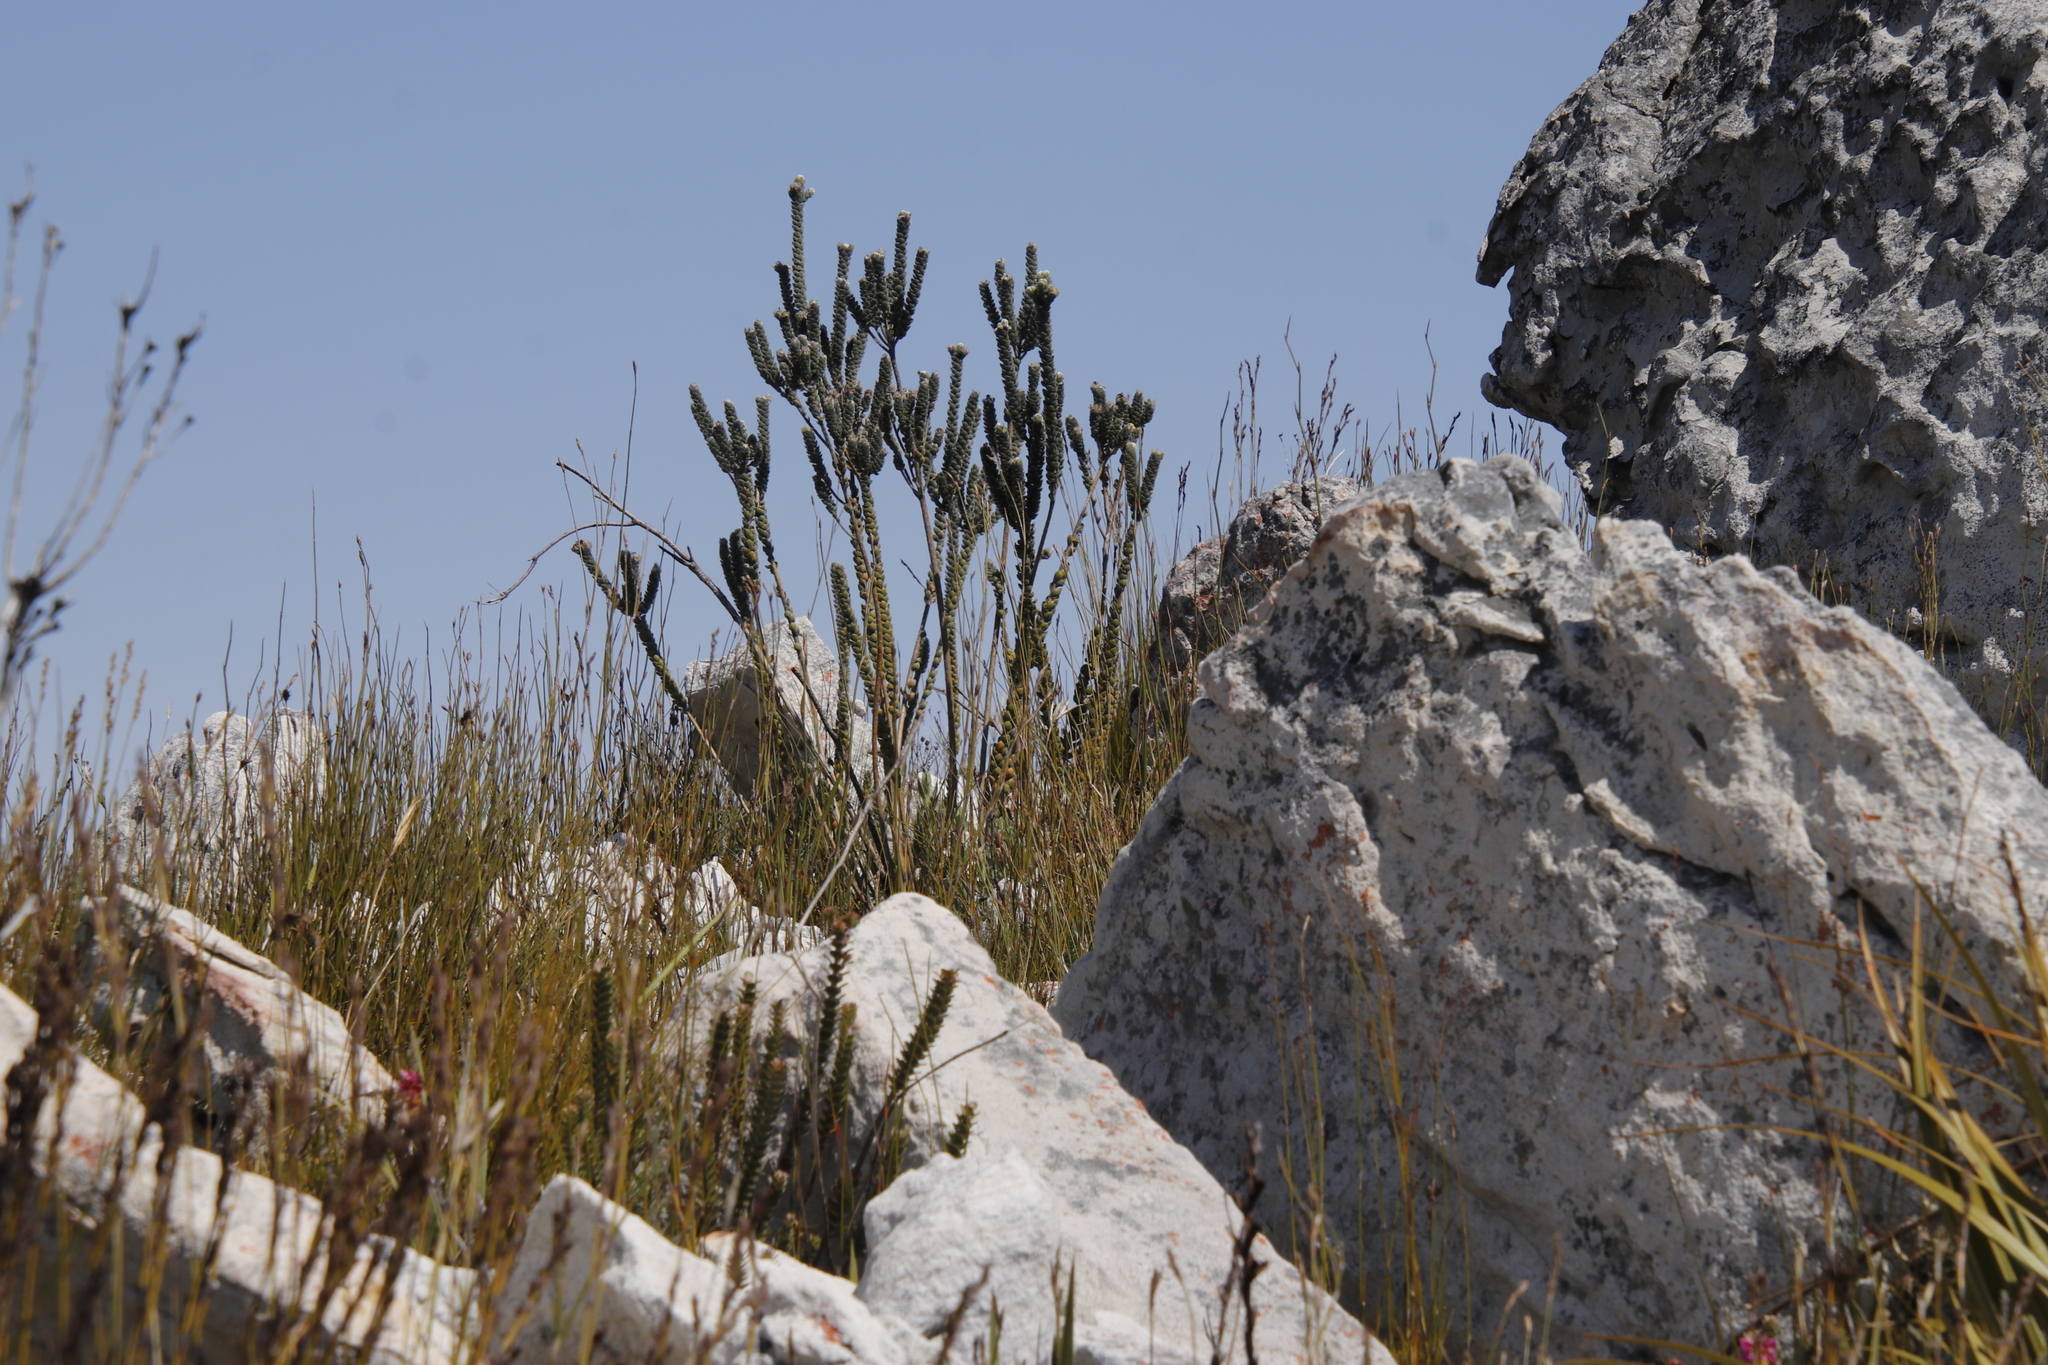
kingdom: Plantae
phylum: Tracheophyta
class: Magnoliopsida
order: Fabales
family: Fabaceae
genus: Liparia
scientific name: Liparia vestita
